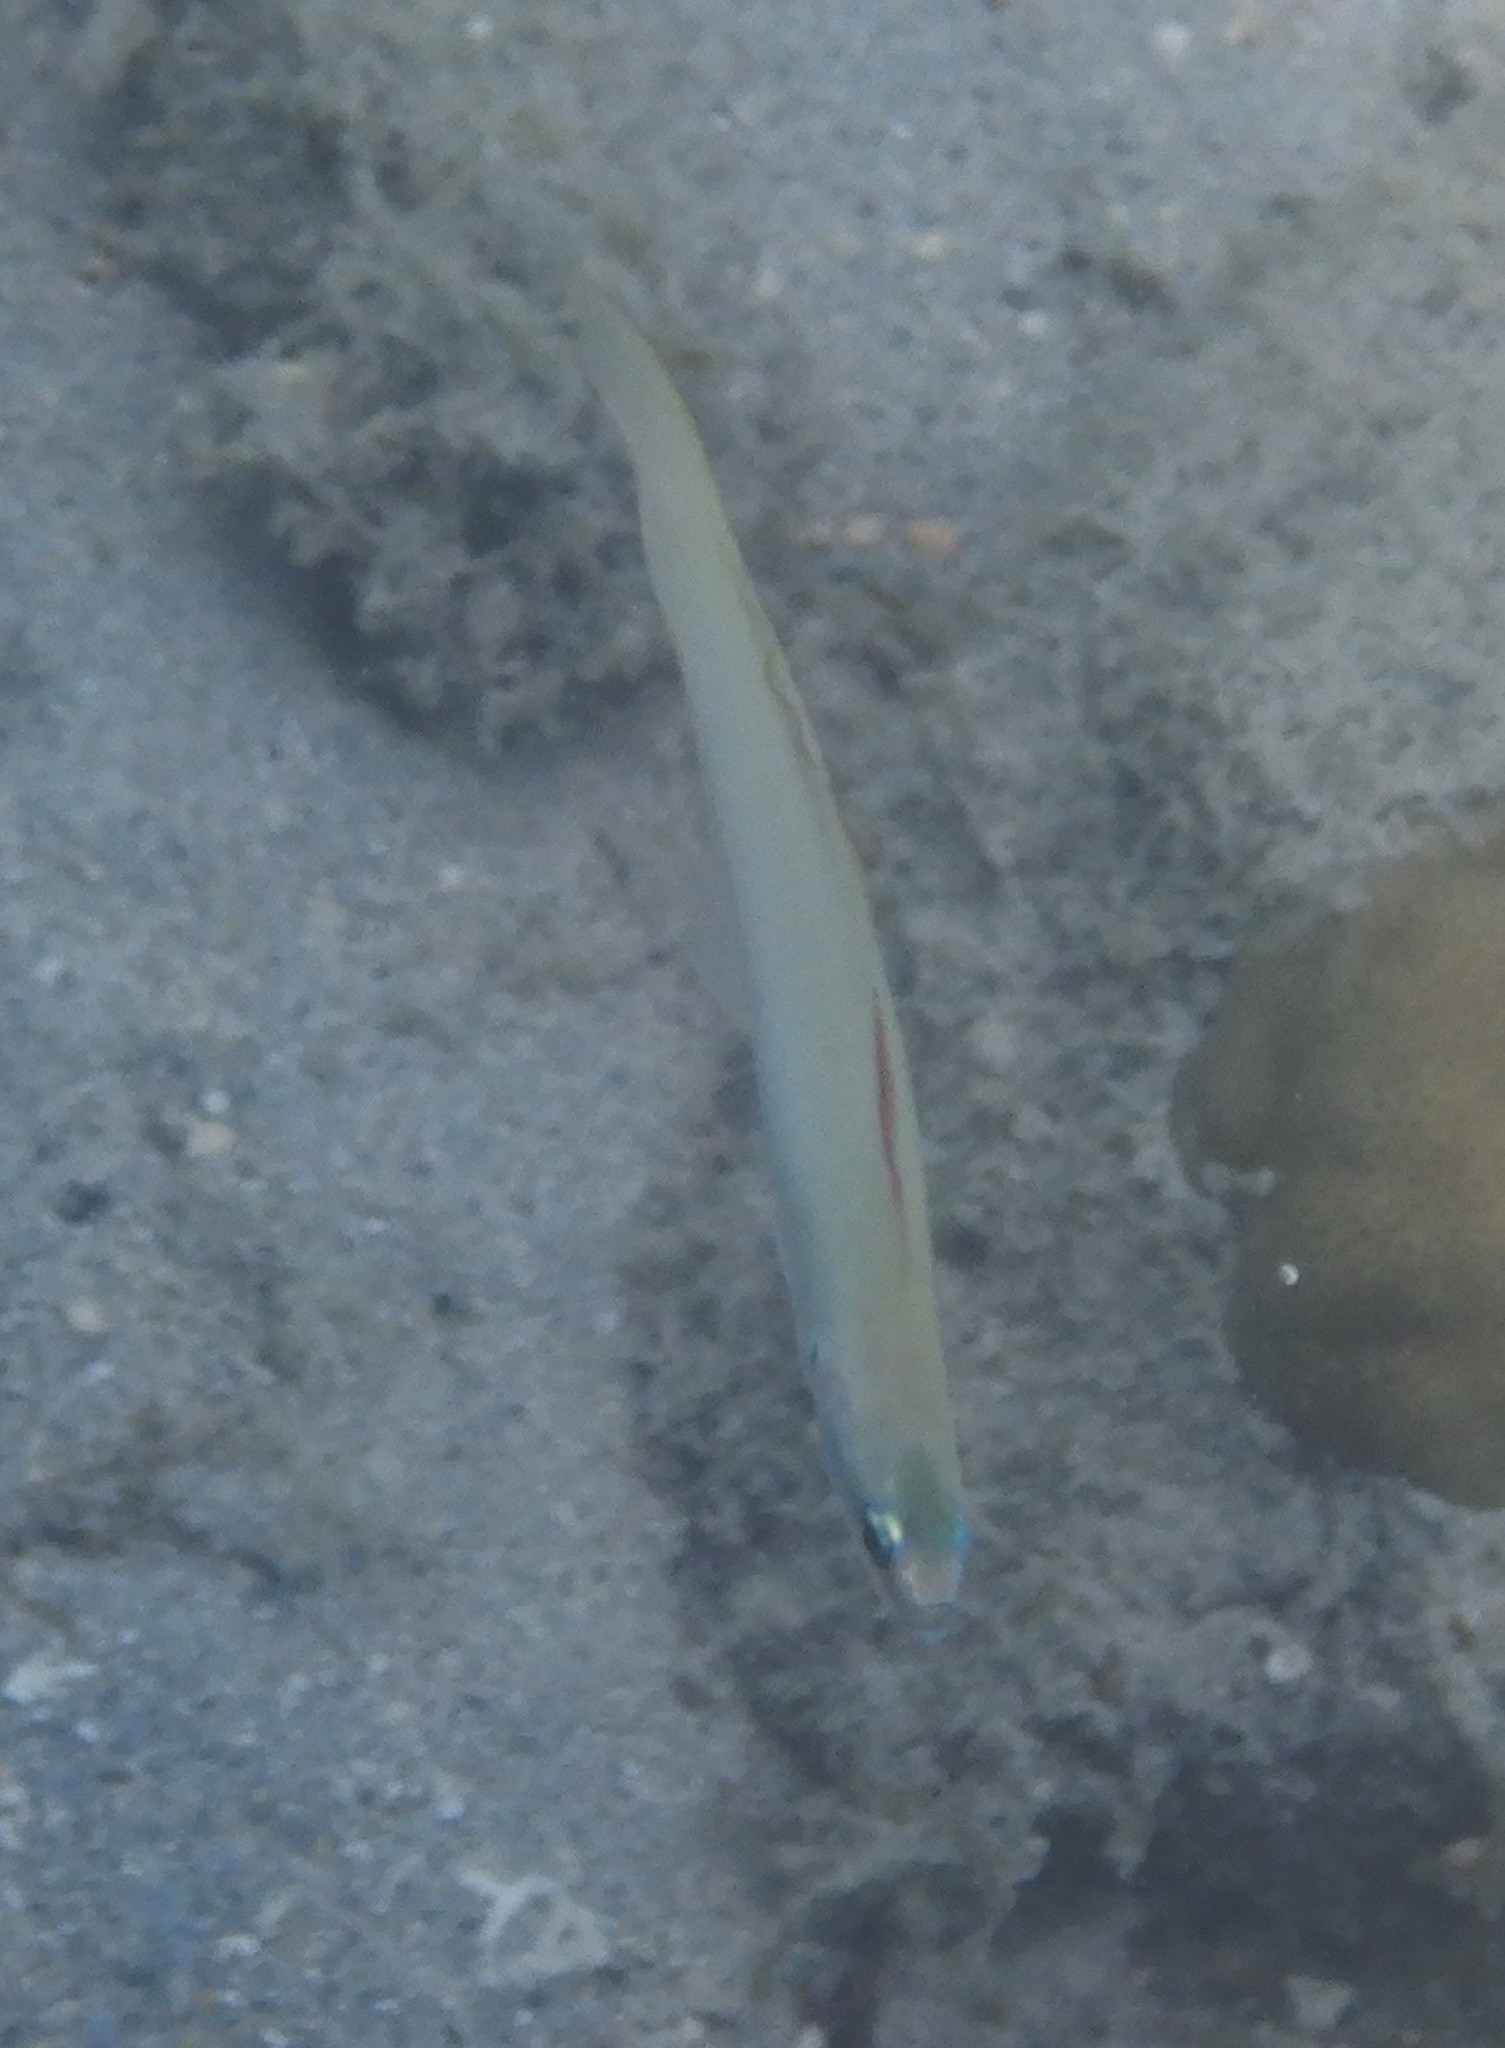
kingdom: Animalia
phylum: Chordata
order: Perciformes
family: Microdesmidae
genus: Ptereleotris
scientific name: Ptereleotris microlepis
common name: Blue gudgeon
